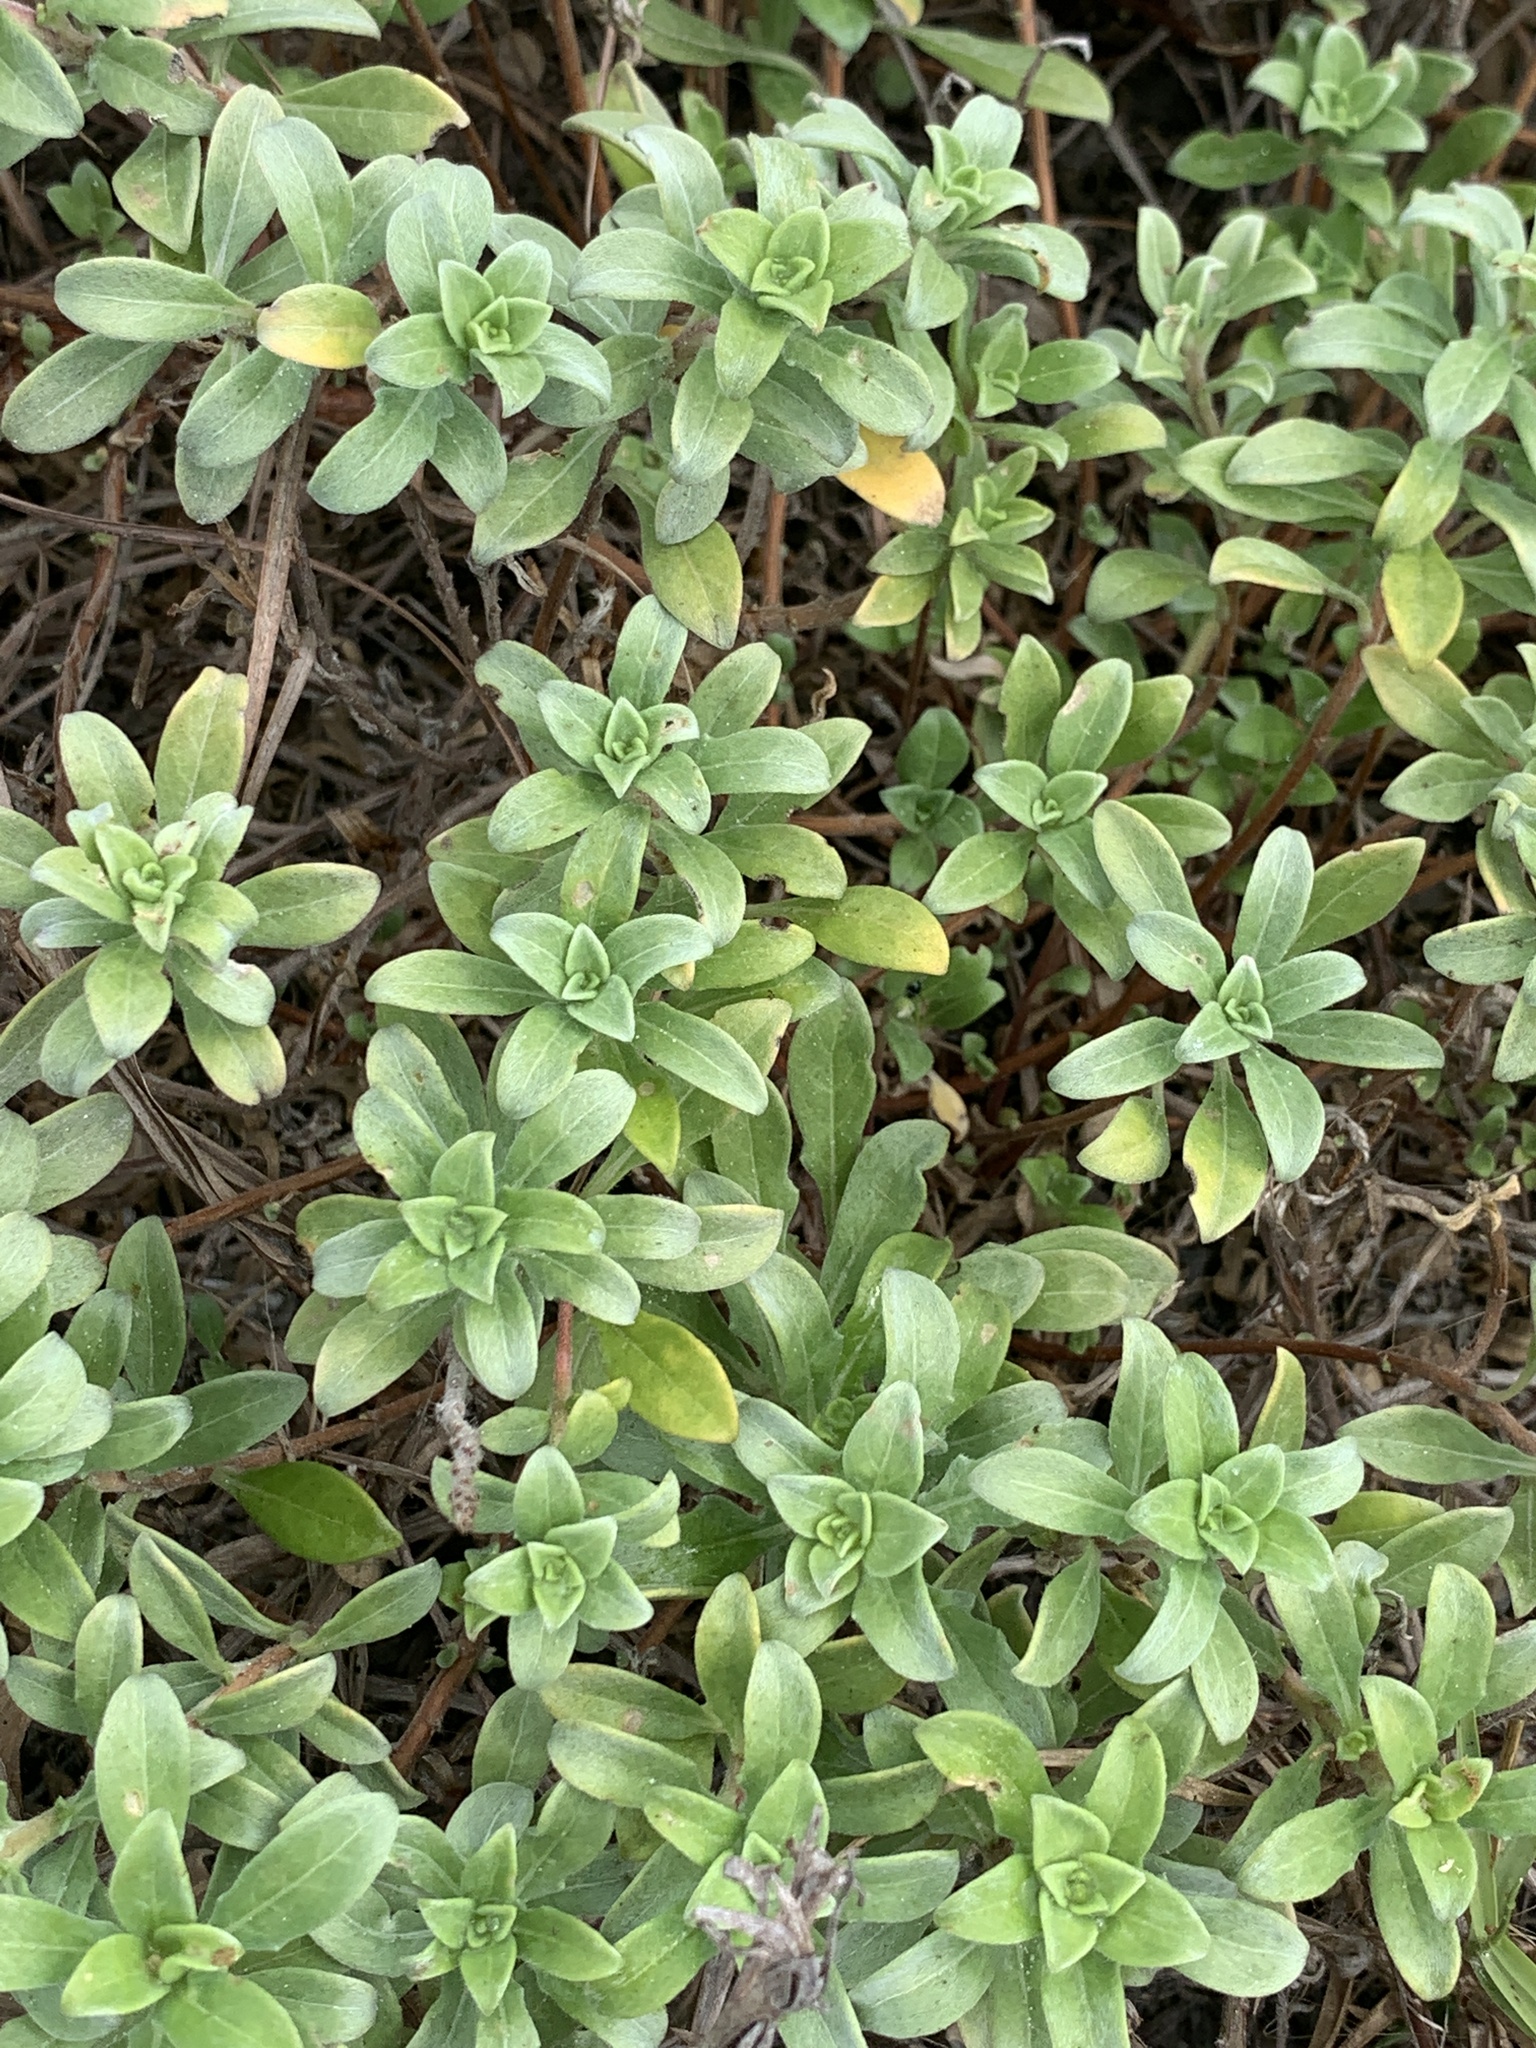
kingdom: Plantae
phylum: Tracheophyta
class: Magnoliopsida
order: Myrtales
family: Onagraceae
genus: Oenothera
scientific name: Oenothera humifusa
